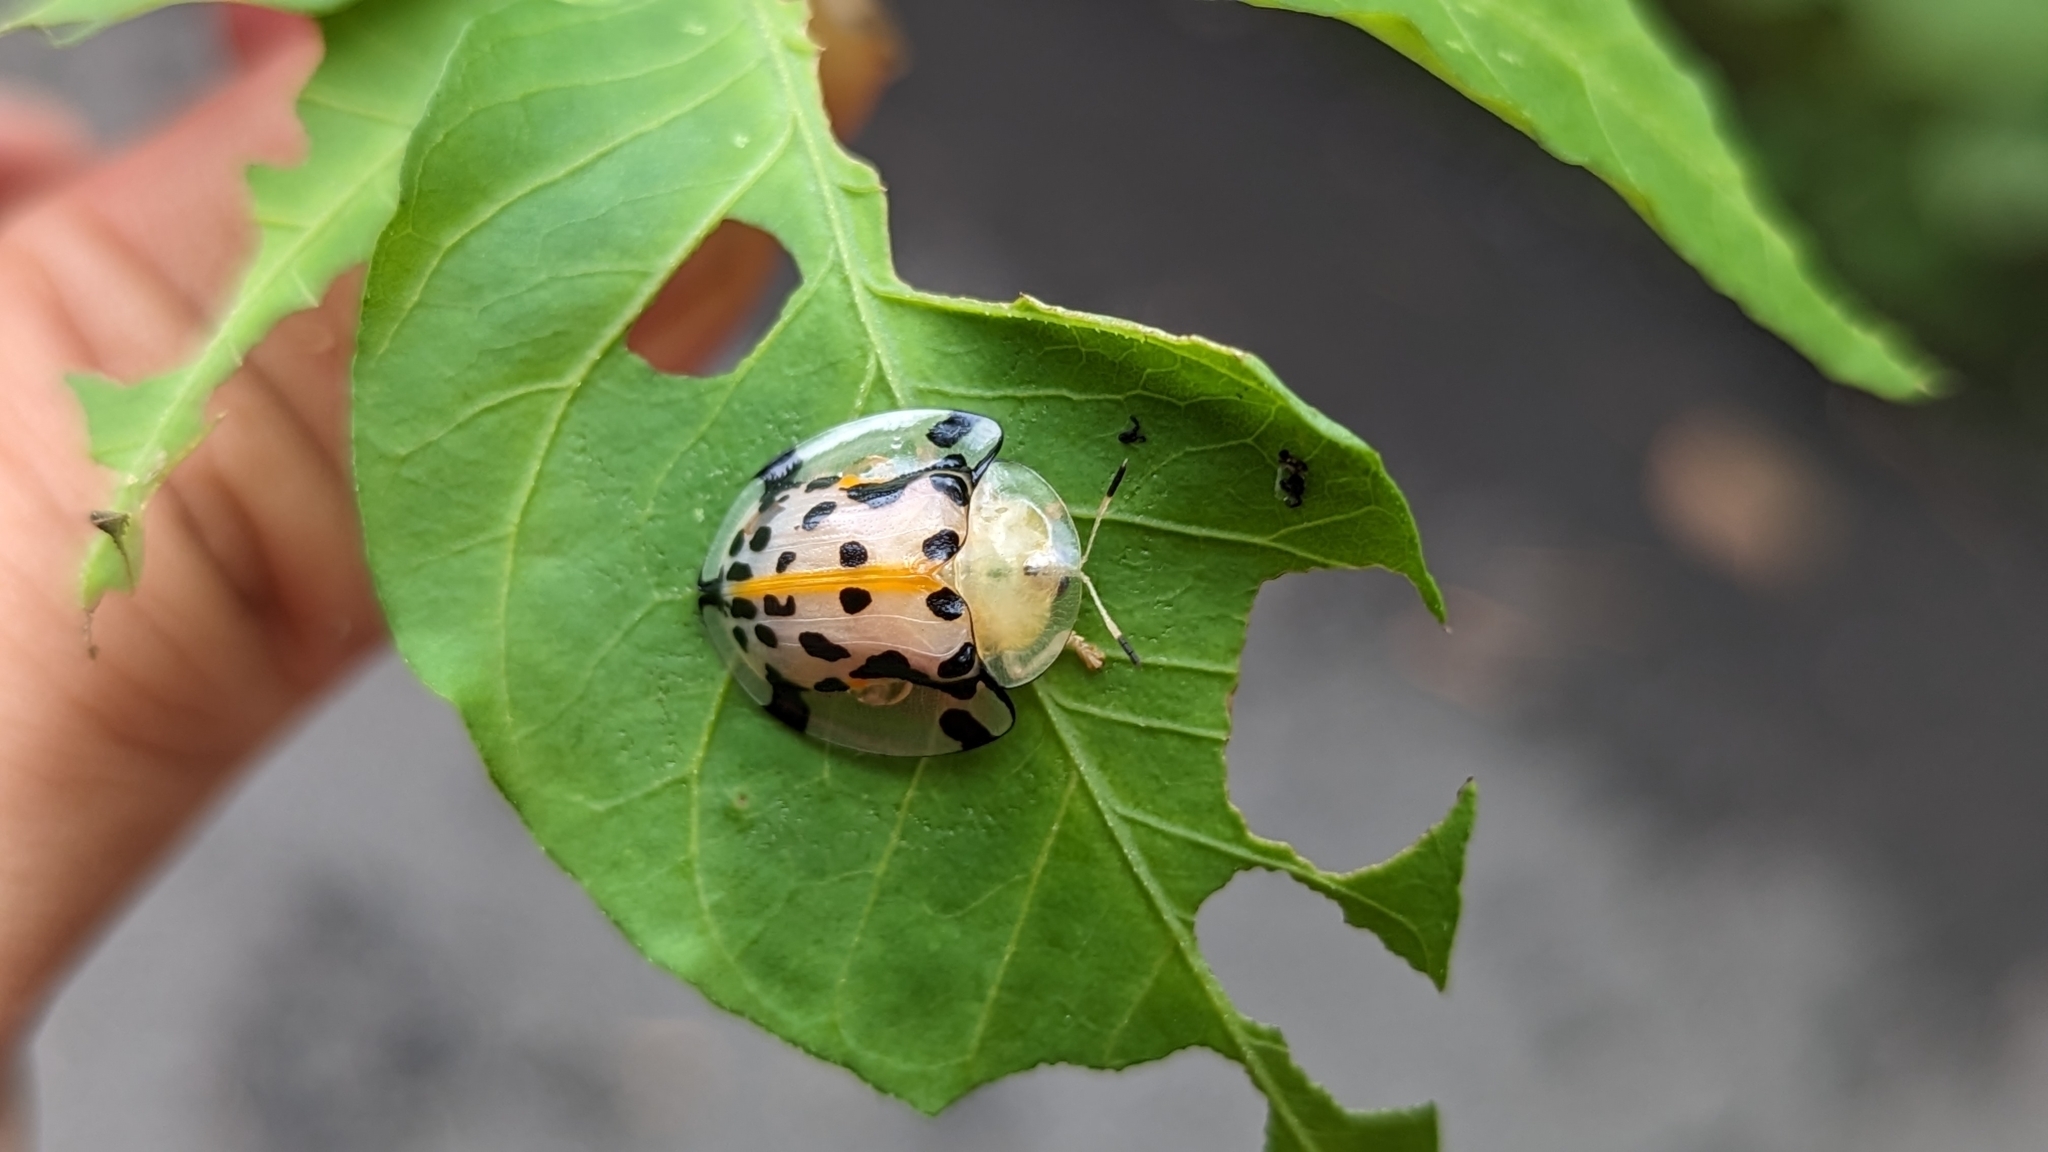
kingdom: Animalia
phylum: Arthropoda
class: Insecta
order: Coleoptera
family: Chrysomelidae
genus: Aspidimorpha
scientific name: Aspidimorpha miliaris
